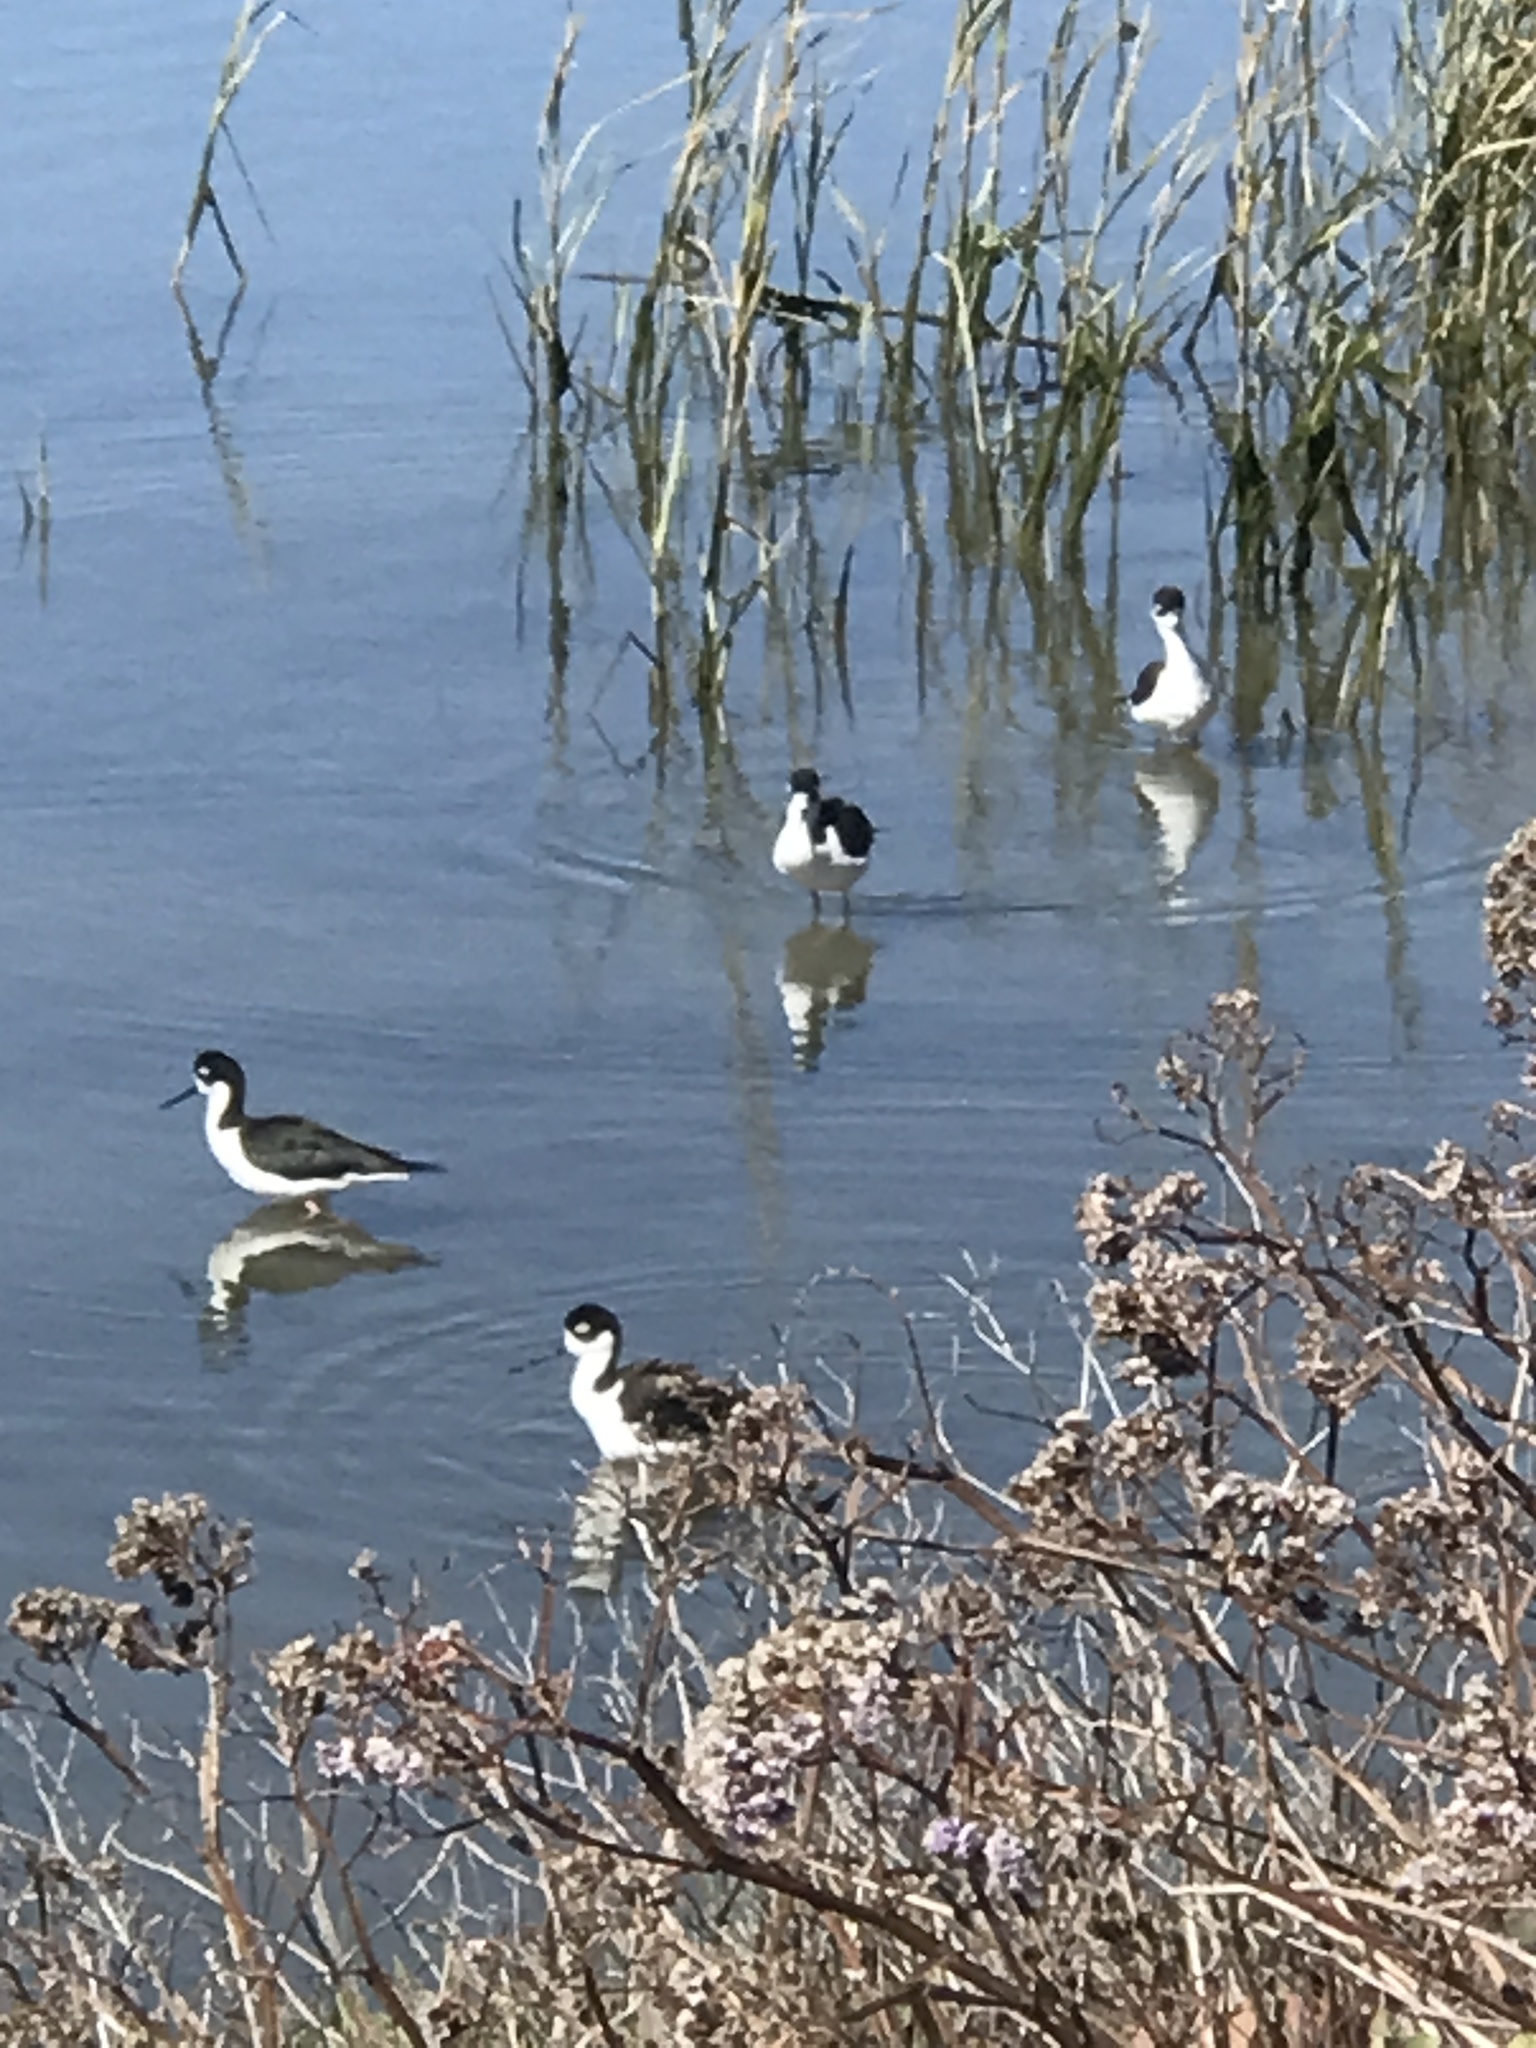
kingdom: Animalia
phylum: Chordata
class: Aves
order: Charadriiformes
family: Recurvirostridae
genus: Himantopus
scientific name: Himantopus mexicanus
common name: Black-necked stilt
